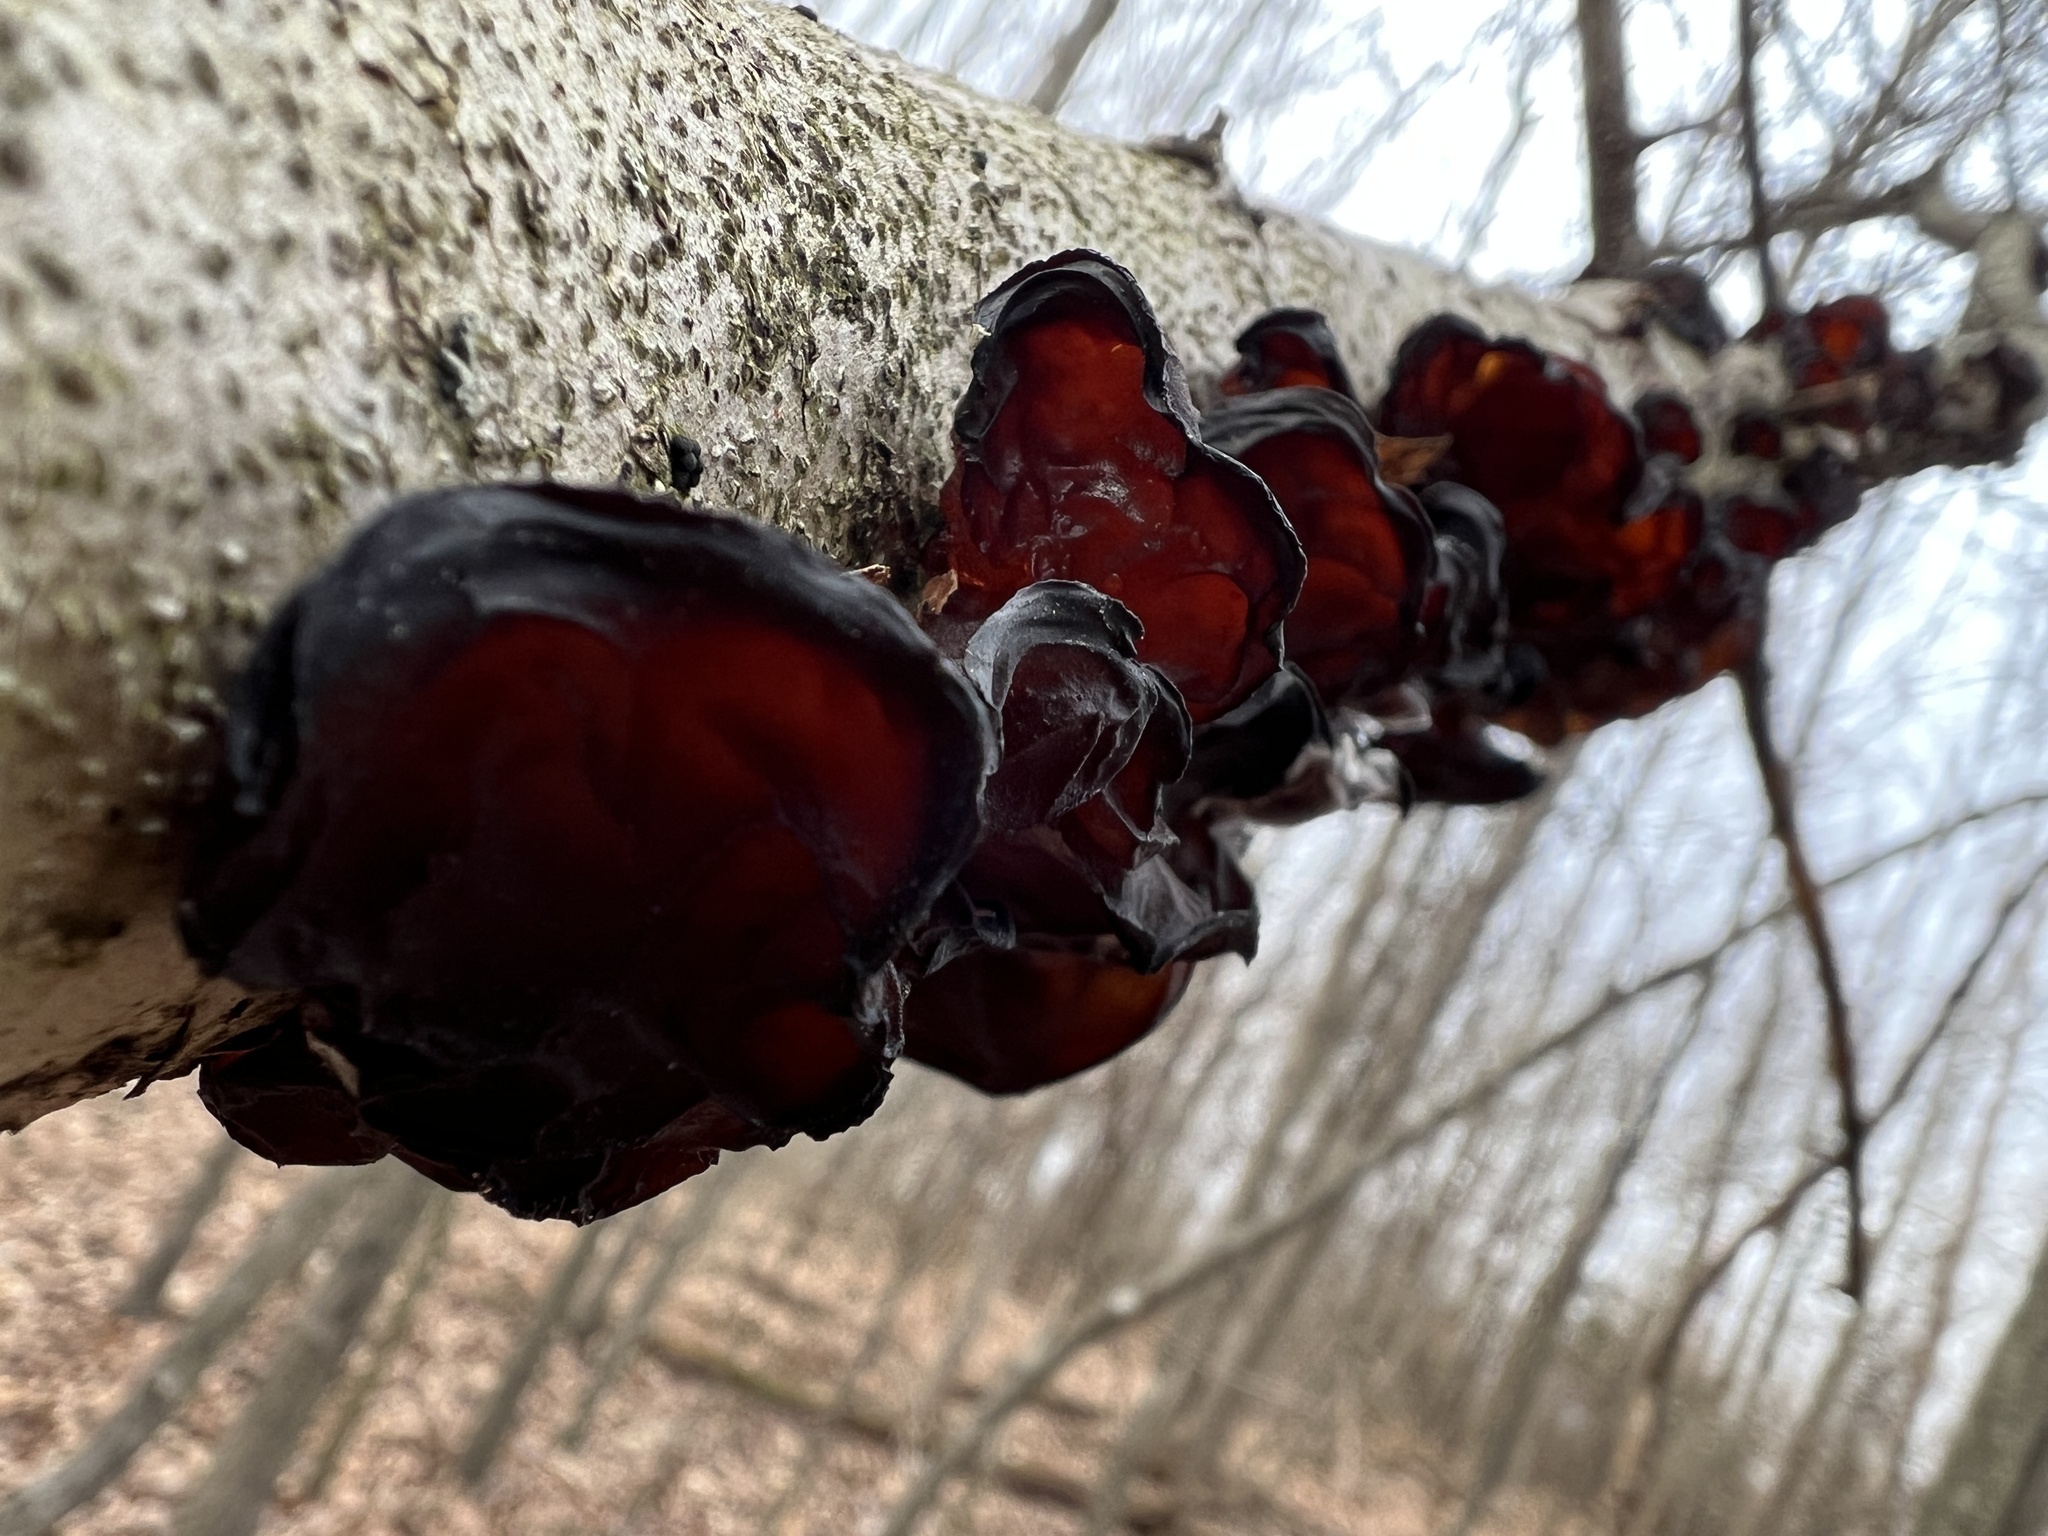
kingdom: Fungi
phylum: Basidiomycota
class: Agaricomycetes
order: Auriculariales
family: Auriculariaceae
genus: Exidia
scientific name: Exidia
